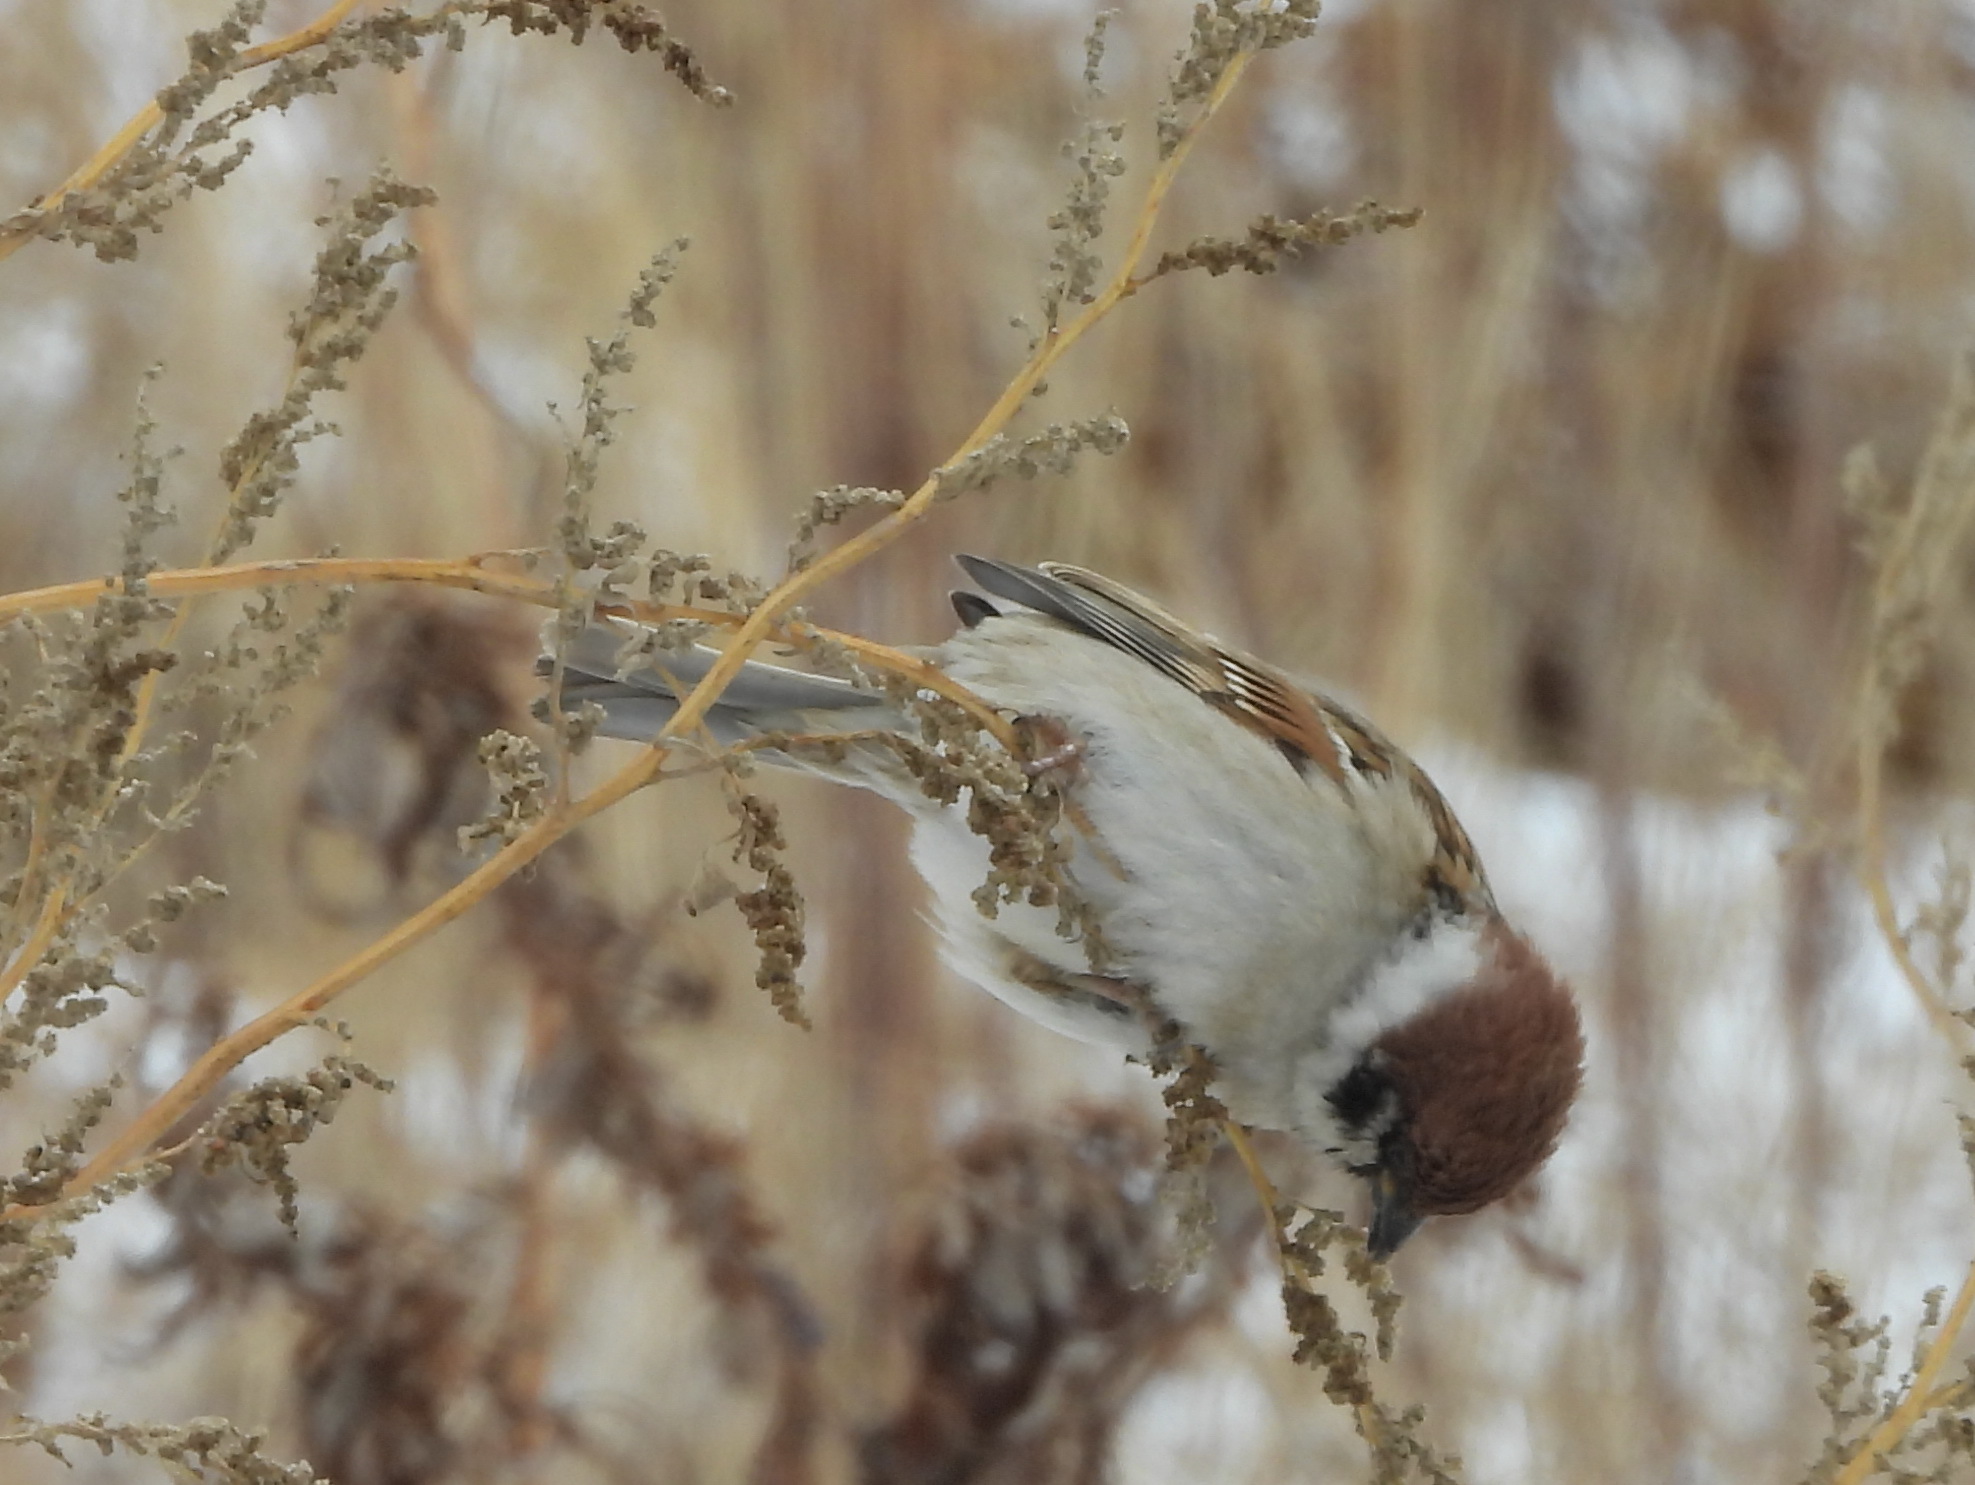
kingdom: Animalia
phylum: Chordata
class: Aves
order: Passeriformes
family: Passeridae
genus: Passer
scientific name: Passer montanus
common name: Eurasian tree sparrow
